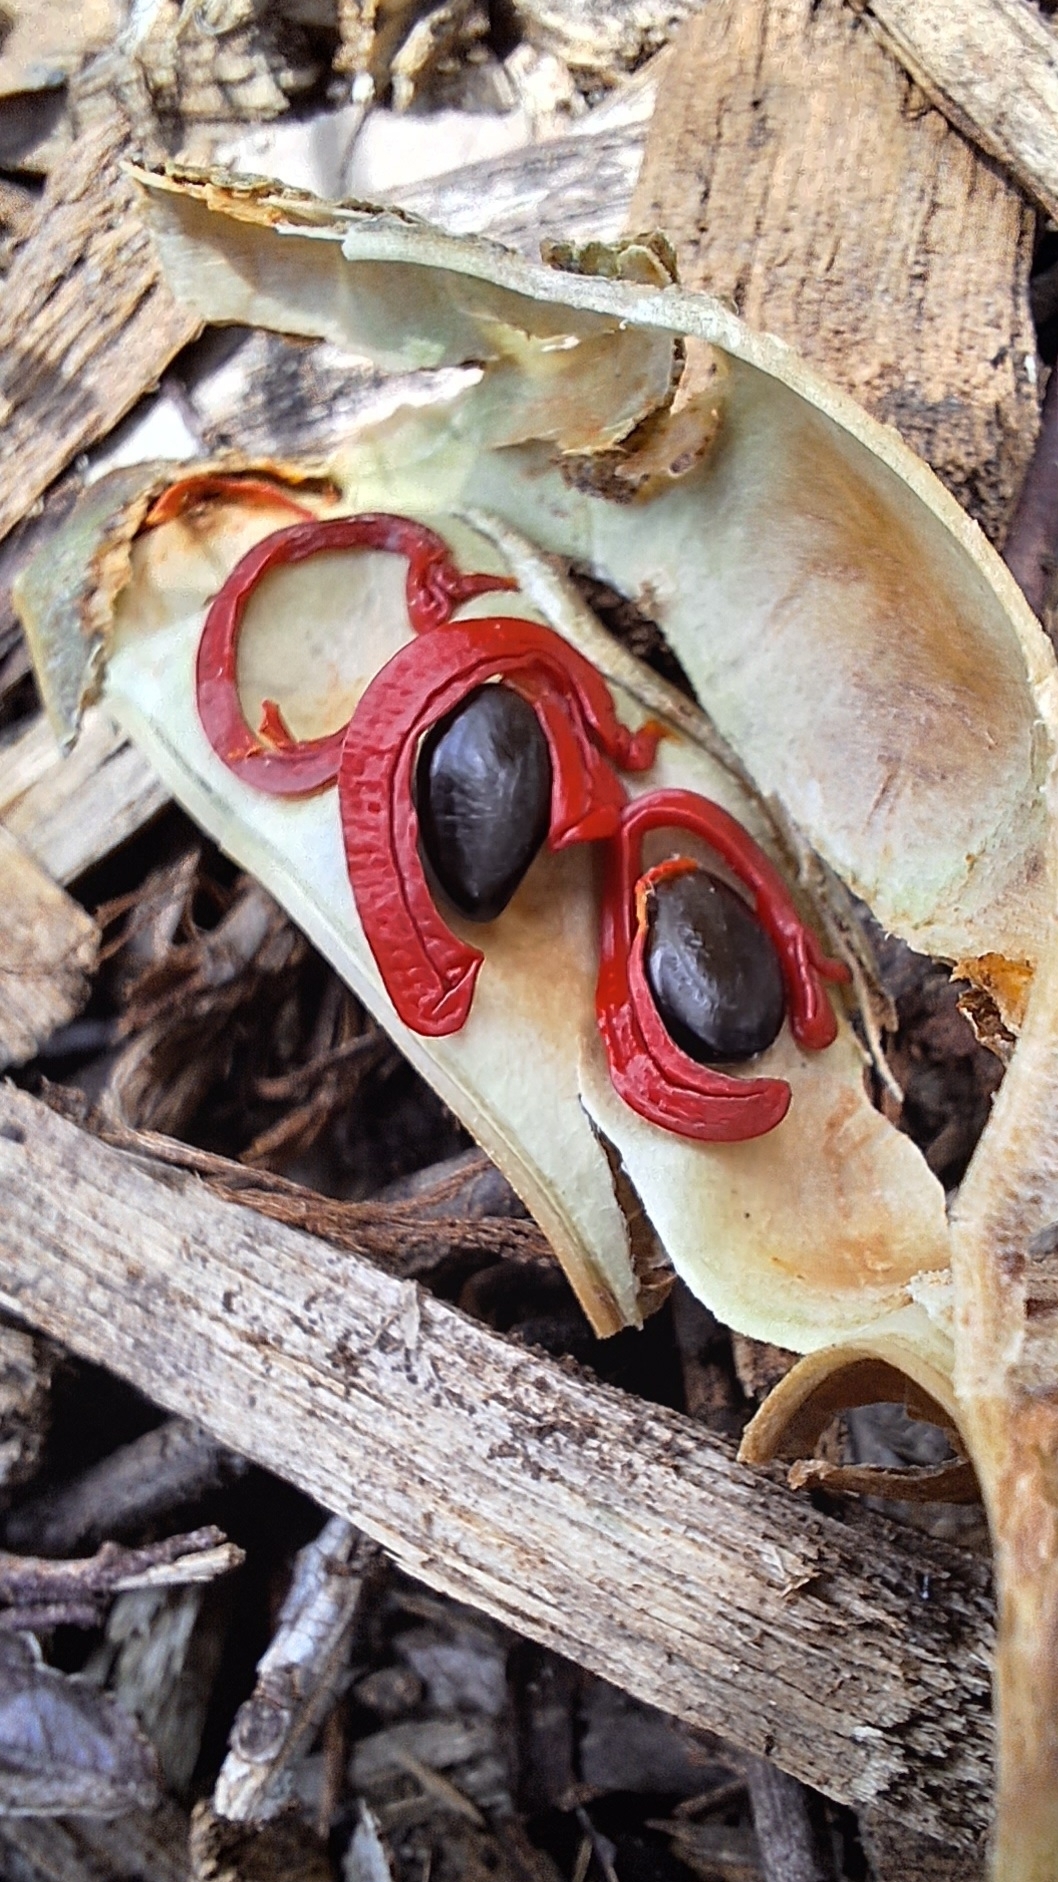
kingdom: Plantae
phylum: Tracheophyta
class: Magnoliopsida
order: Fabales
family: Fabaceae
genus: Acacia
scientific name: Acacia cyclops
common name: Coastal wattle
